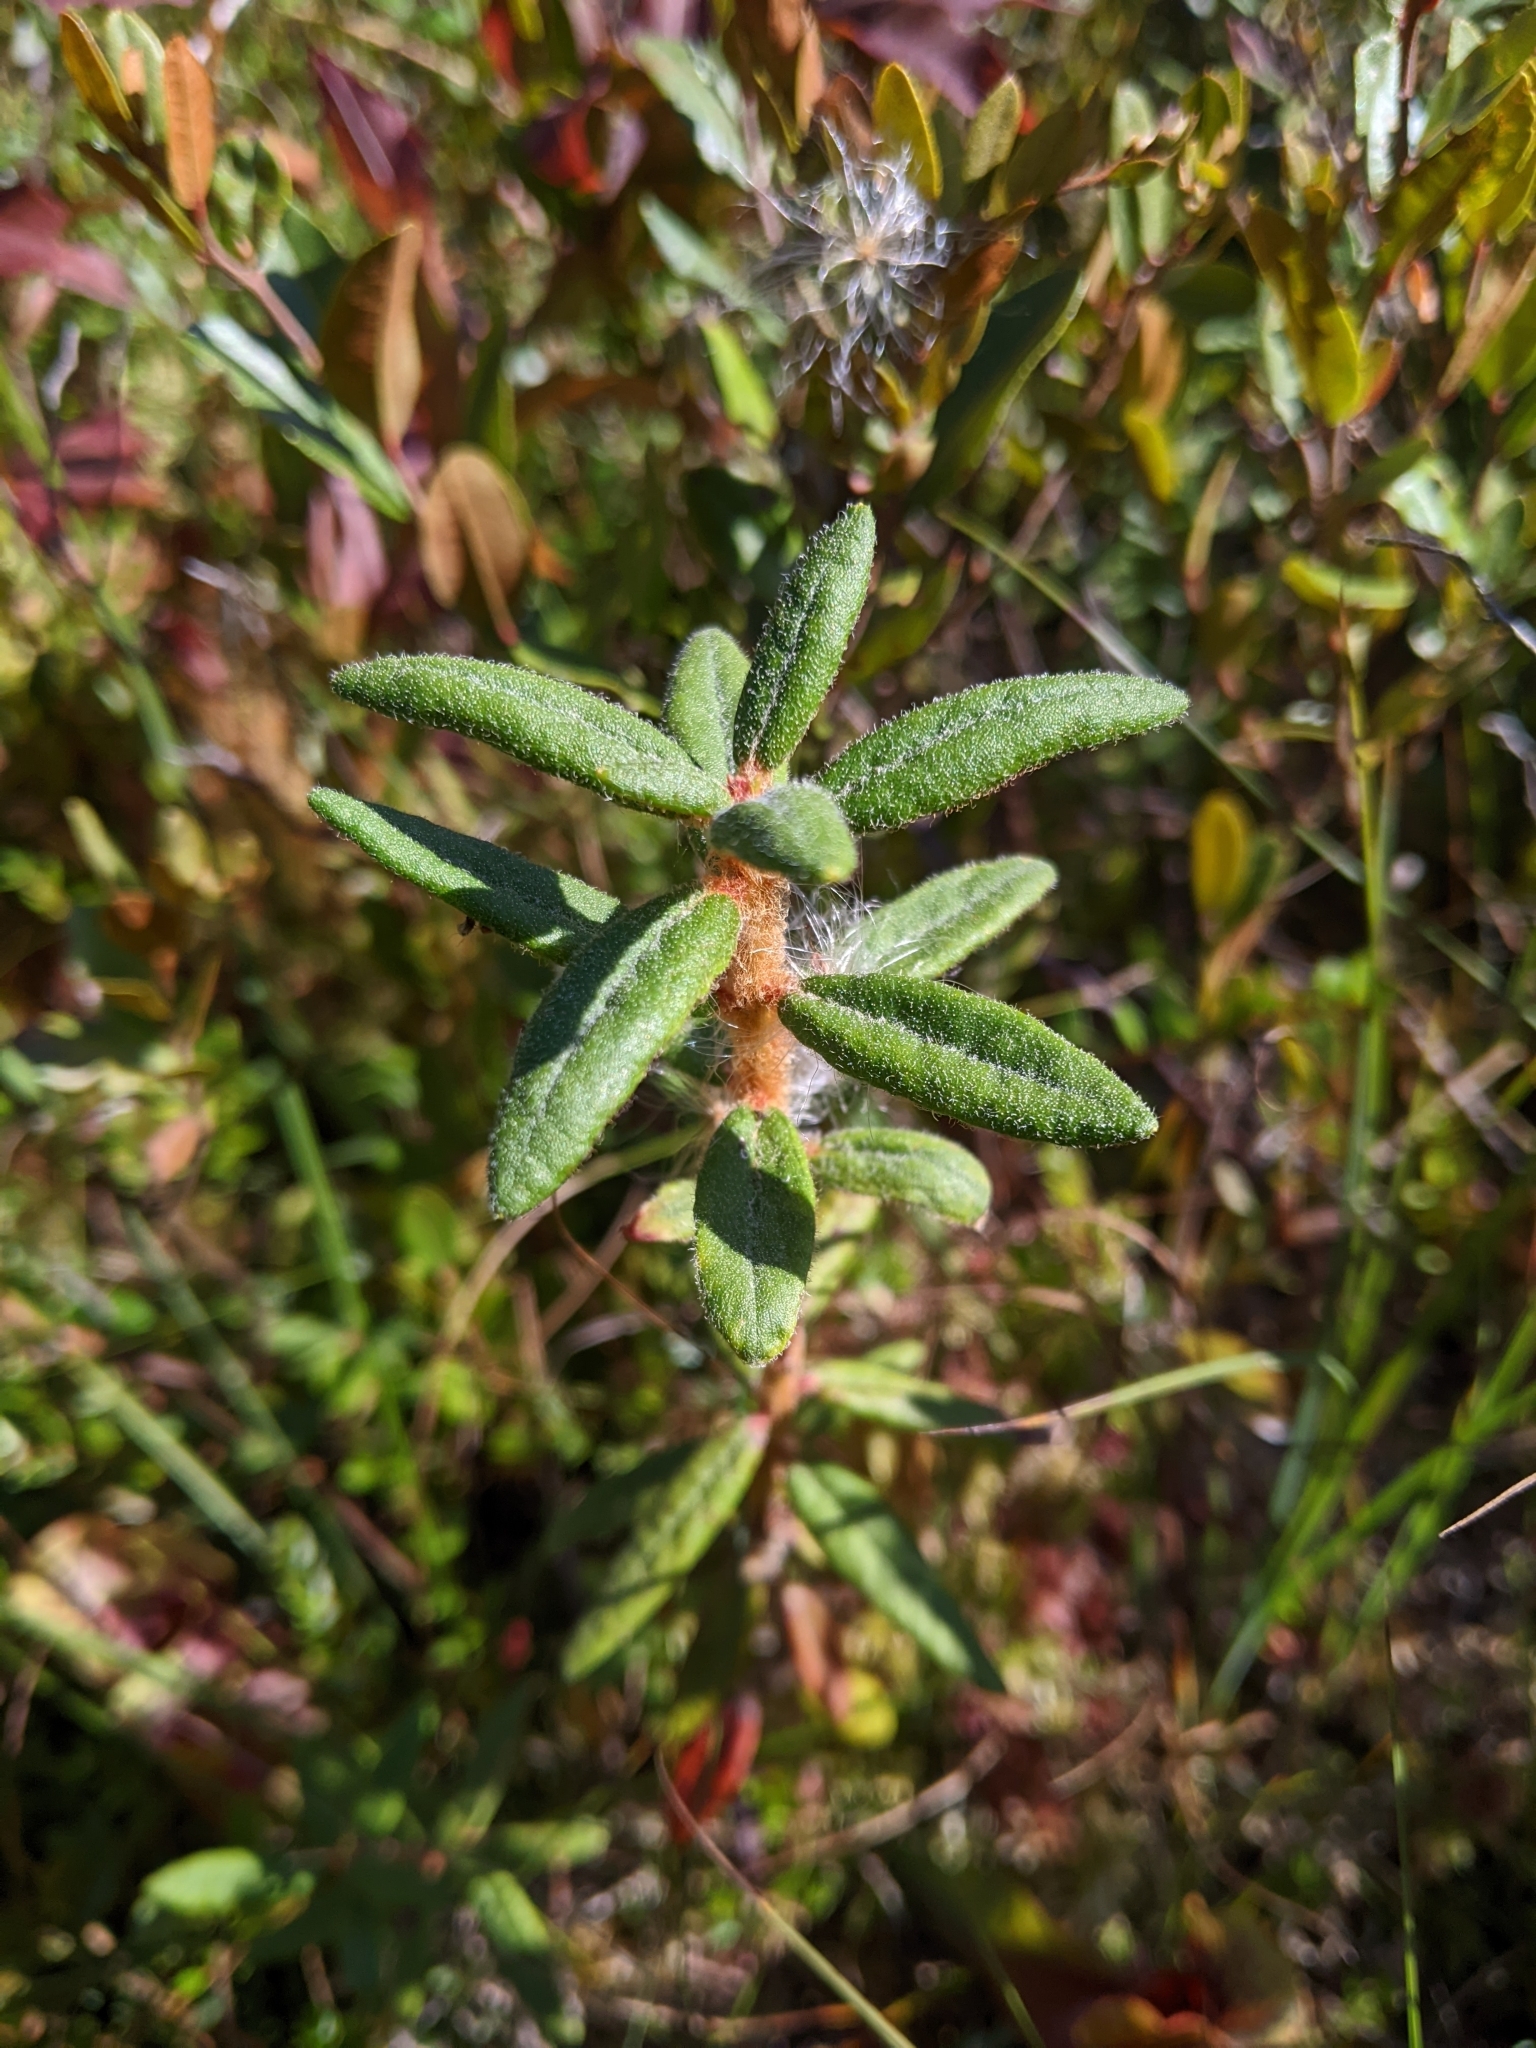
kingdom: Plantae
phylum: Tracheophyta
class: Magnoliopsida
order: Ericales
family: Ericaceae
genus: Rhododendron
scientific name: Rhododendron groenlandicum
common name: Bog labrador tea
